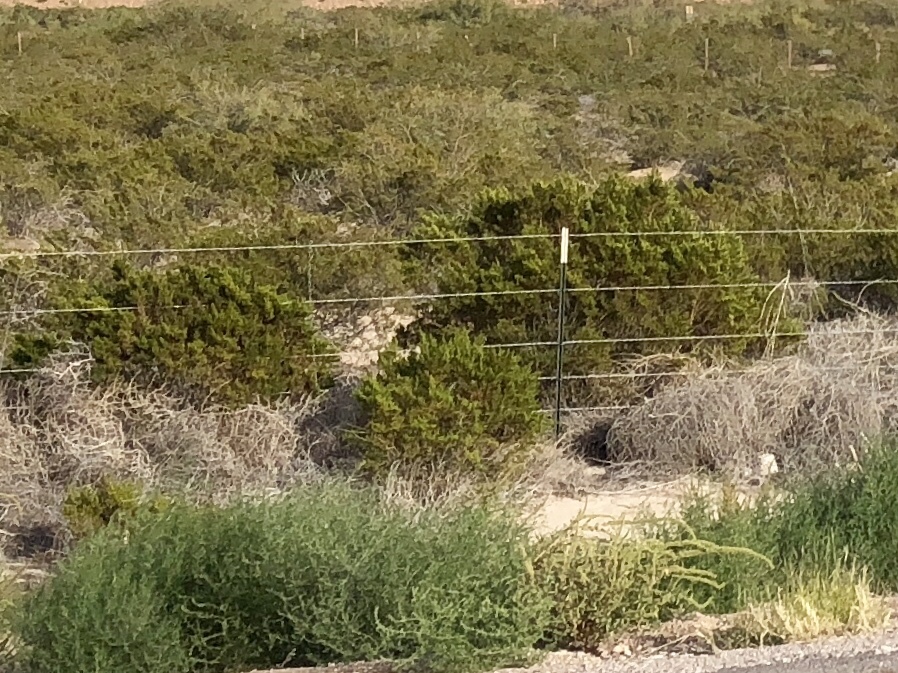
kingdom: Plantae
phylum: Tracheophyta
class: Magnoliopsida
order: Zygophyllales
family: Zygophyllaceae
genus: Larrea
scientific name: Larrea tridentata
